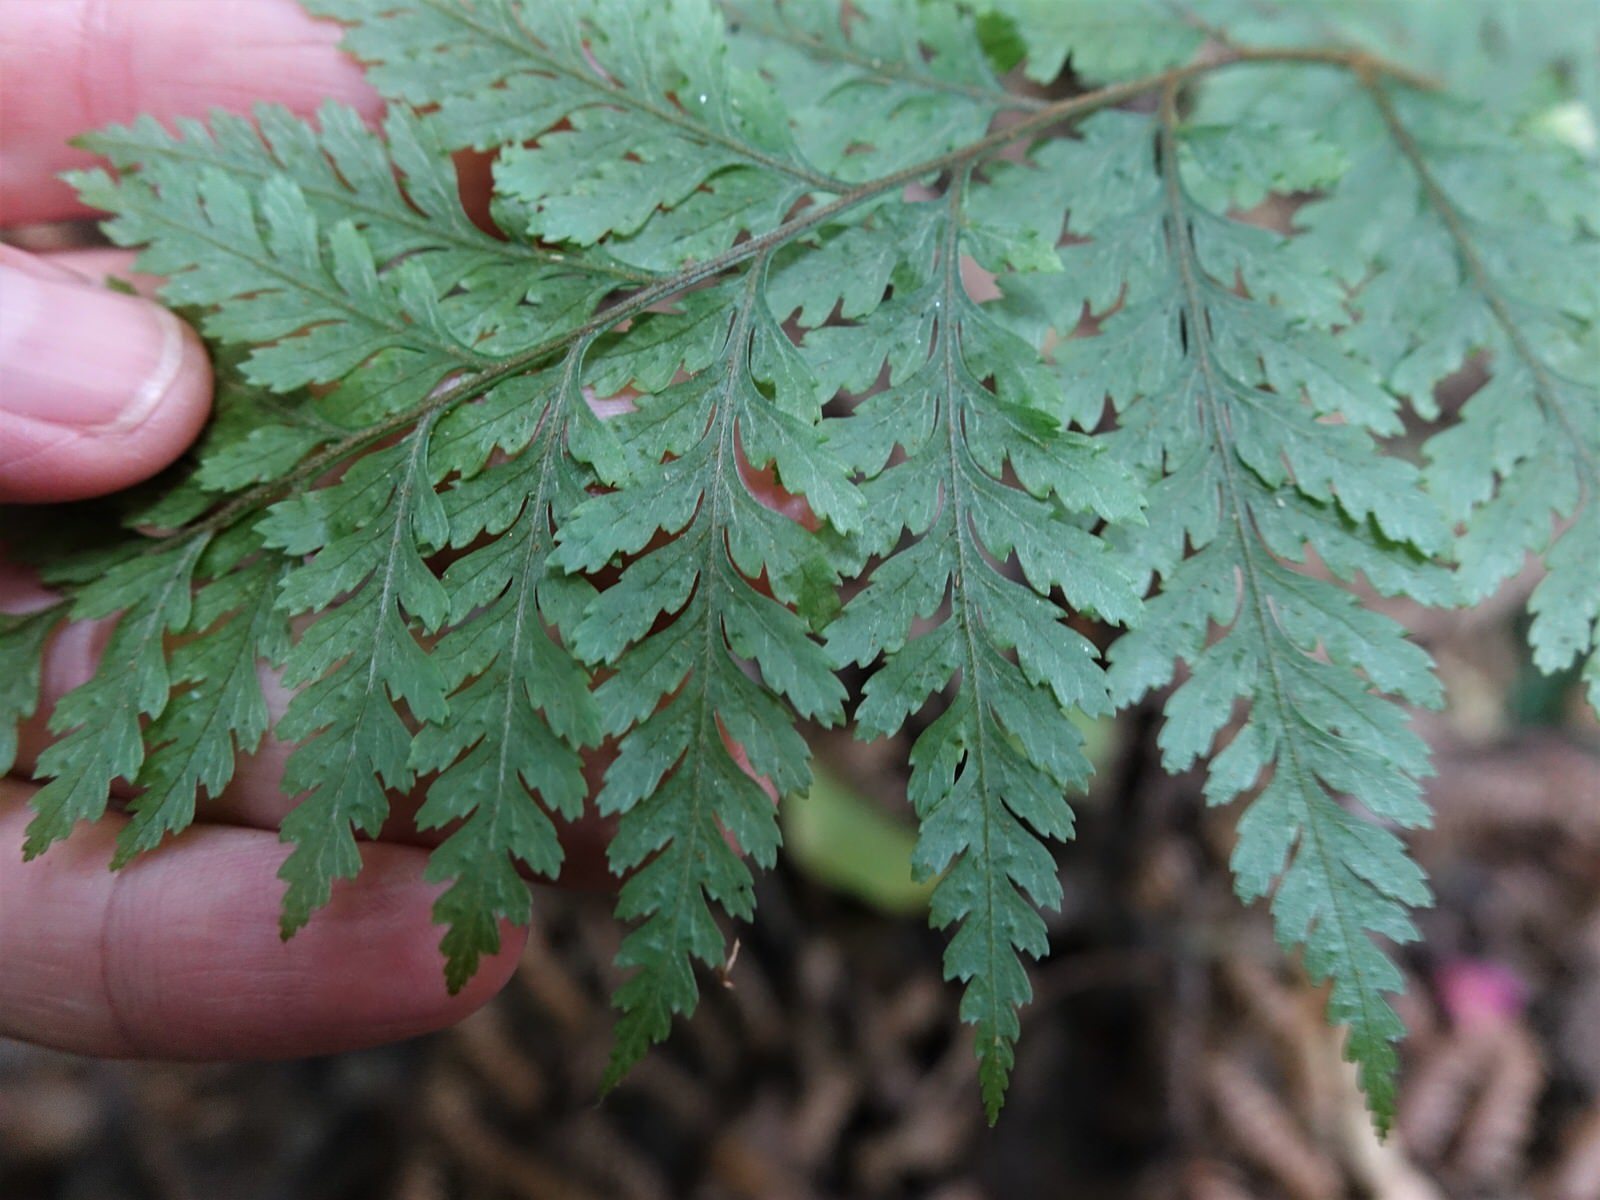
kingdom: Plantae
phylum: Tracheophyta
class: Polypodiopsida
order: Polypodiales
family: Dryopteridaceae
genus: Parapolystichum
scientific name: Parapolystichum glabellum
